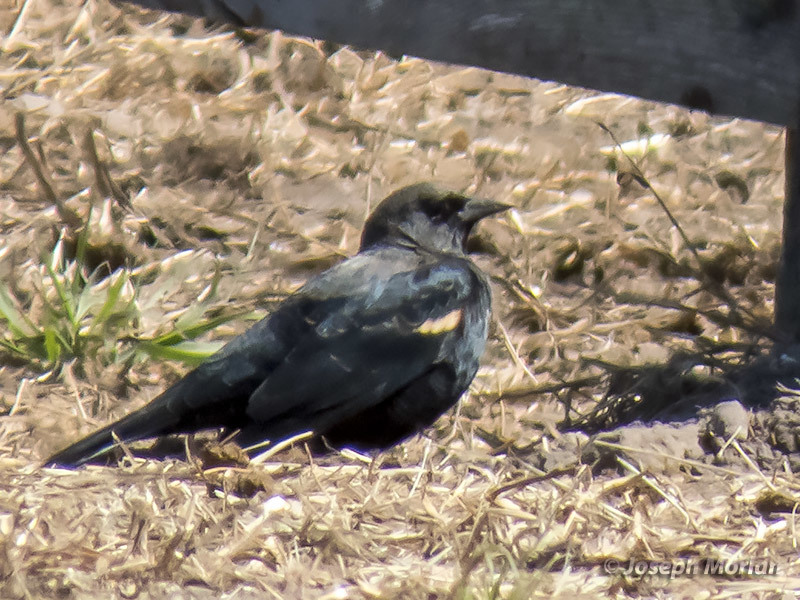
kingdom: Animalia
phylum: Chordata
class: Aves
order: Passeriformes
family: Icteridae
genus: Agelaius
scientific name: Agelaius tricolor
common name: Tricolored blackbird
